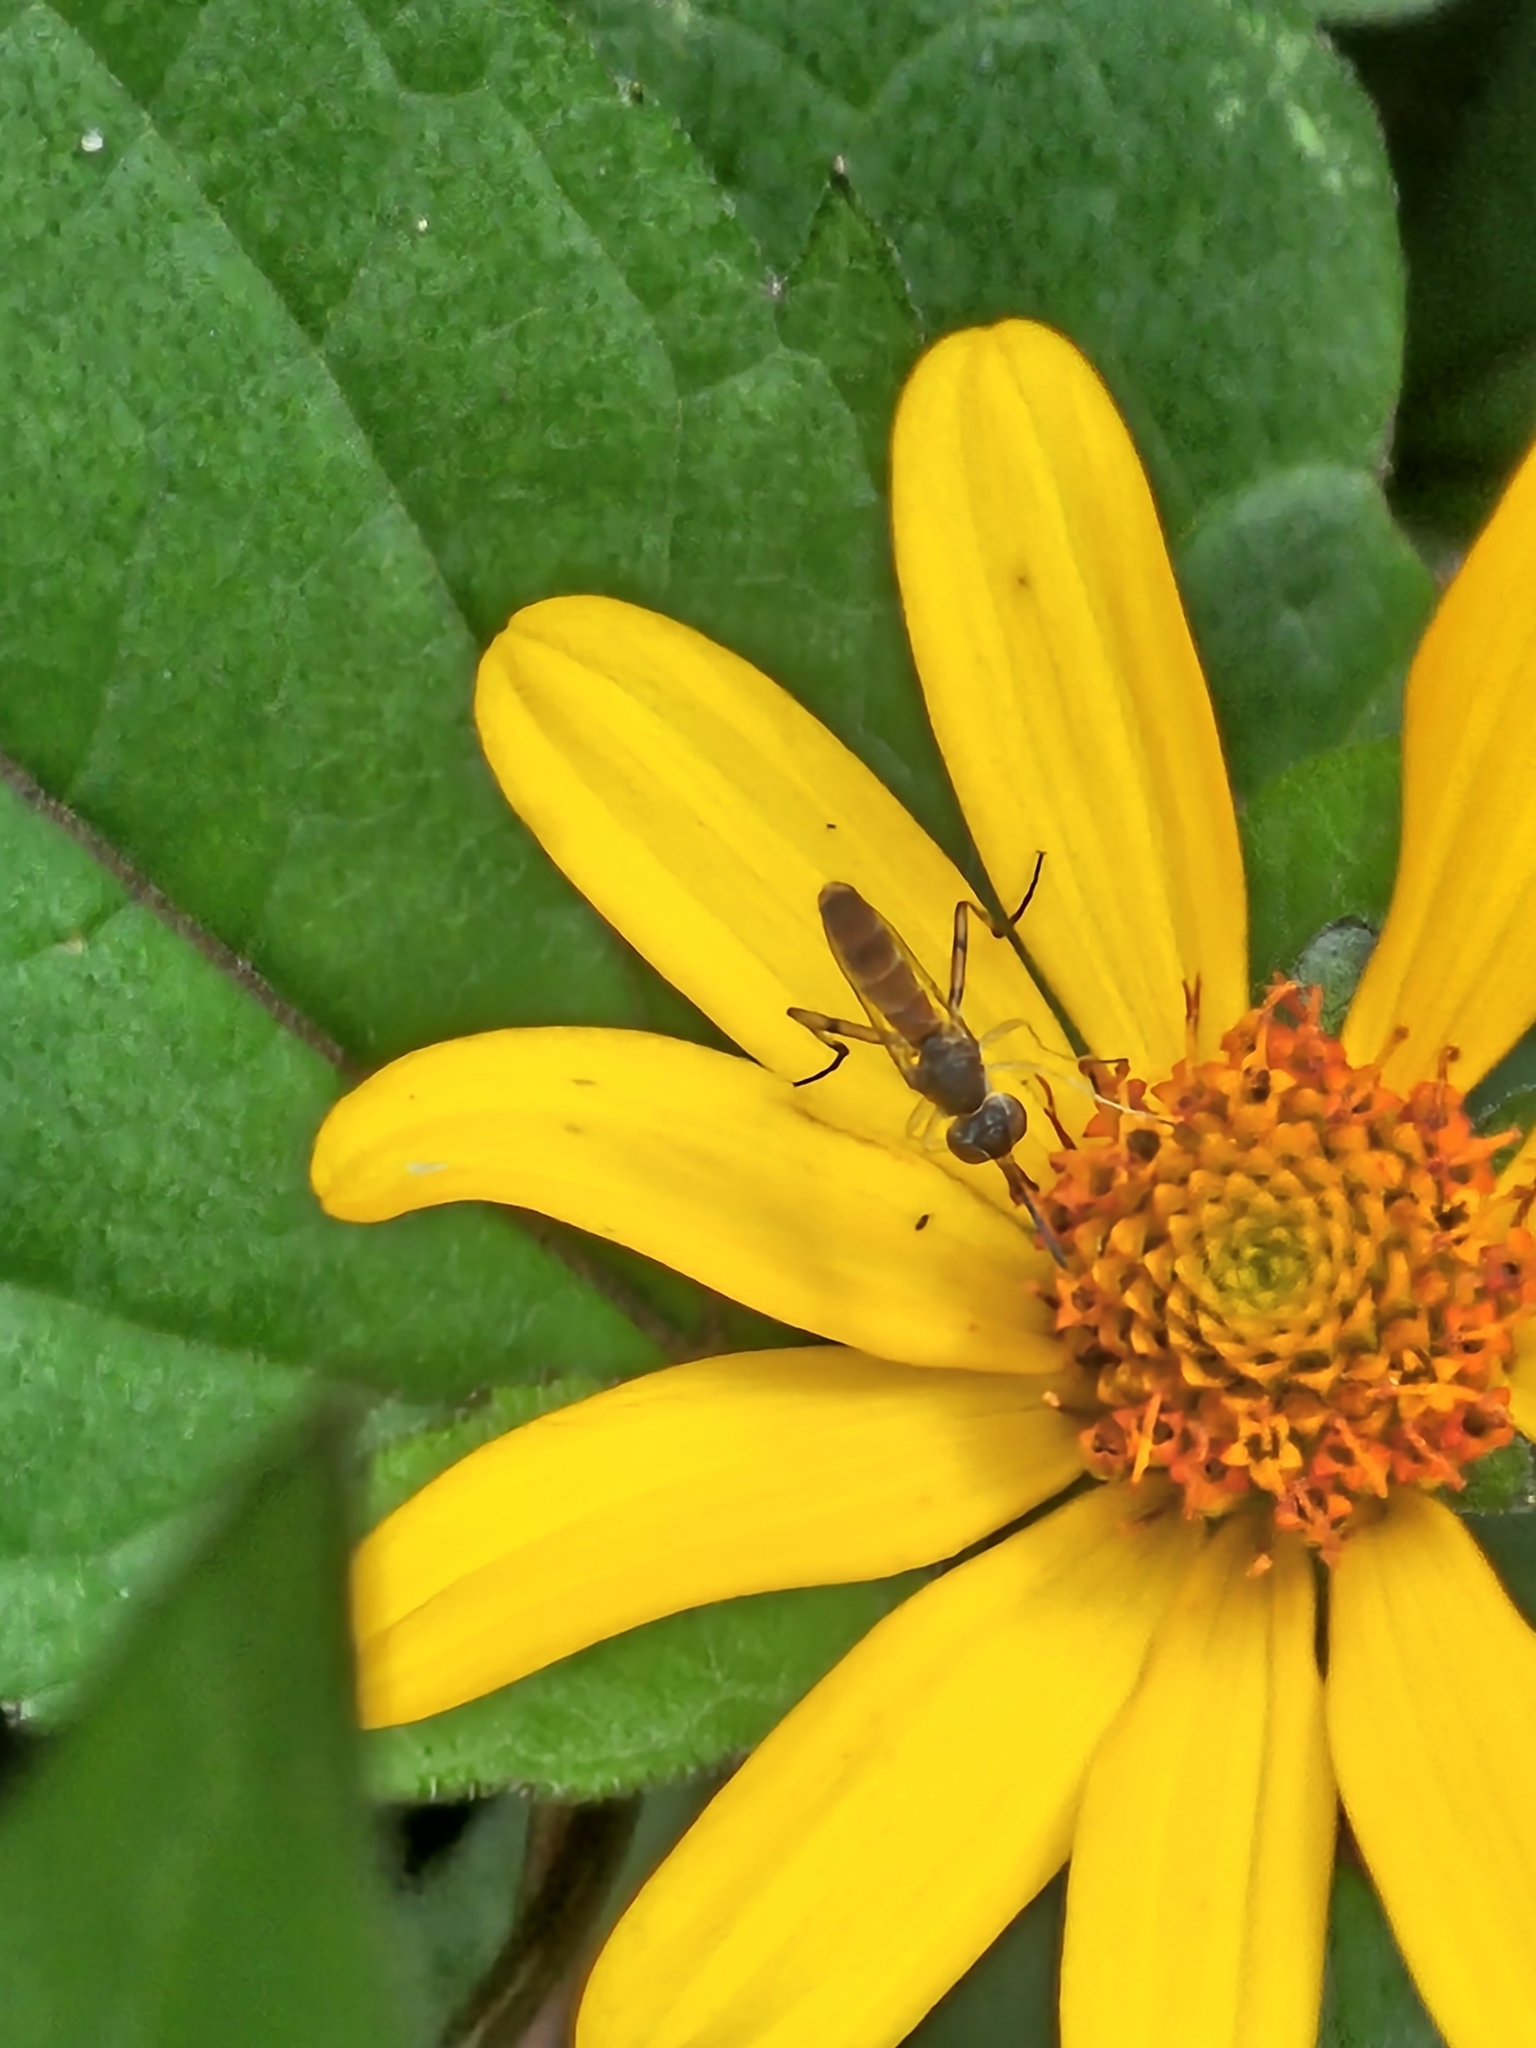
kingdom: Animalia
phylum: Arthropoda
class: Insecta
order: Diptera
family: Conopidae
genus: Stylogaster
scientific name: Stylogaster neglecta
